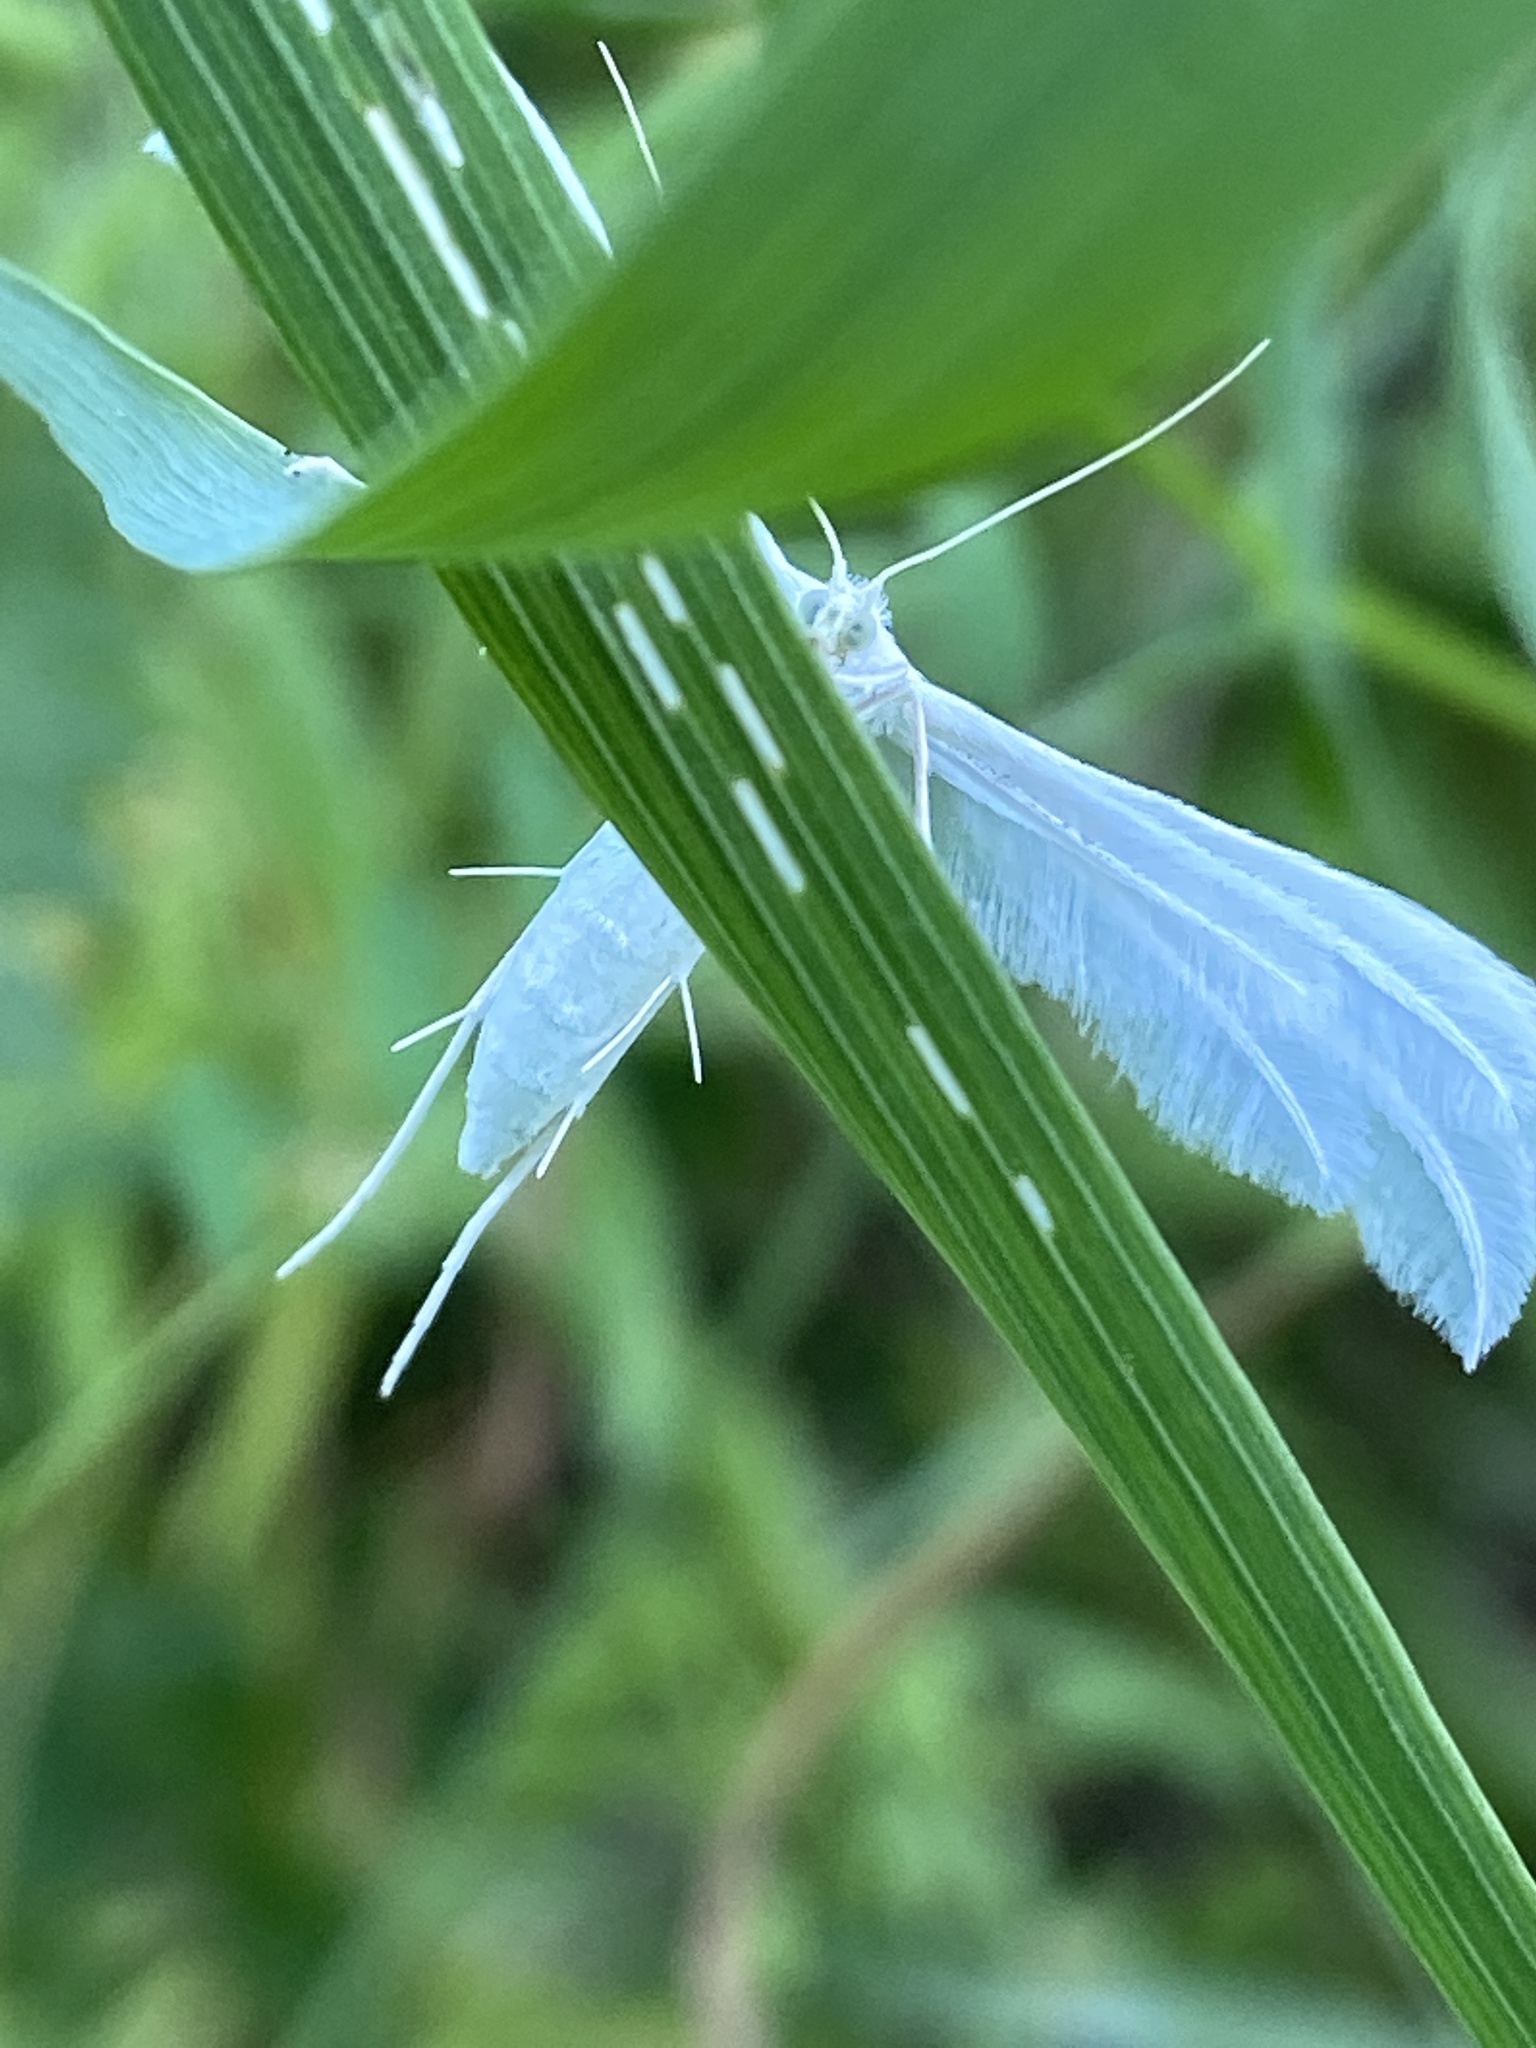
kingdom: Animalia
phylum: Arthropoda
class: Insecta
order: Lepidoptera
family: Pterophoridae
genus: Pterophorus
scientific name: Pterophorus pentadactyla
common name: White plume moth
